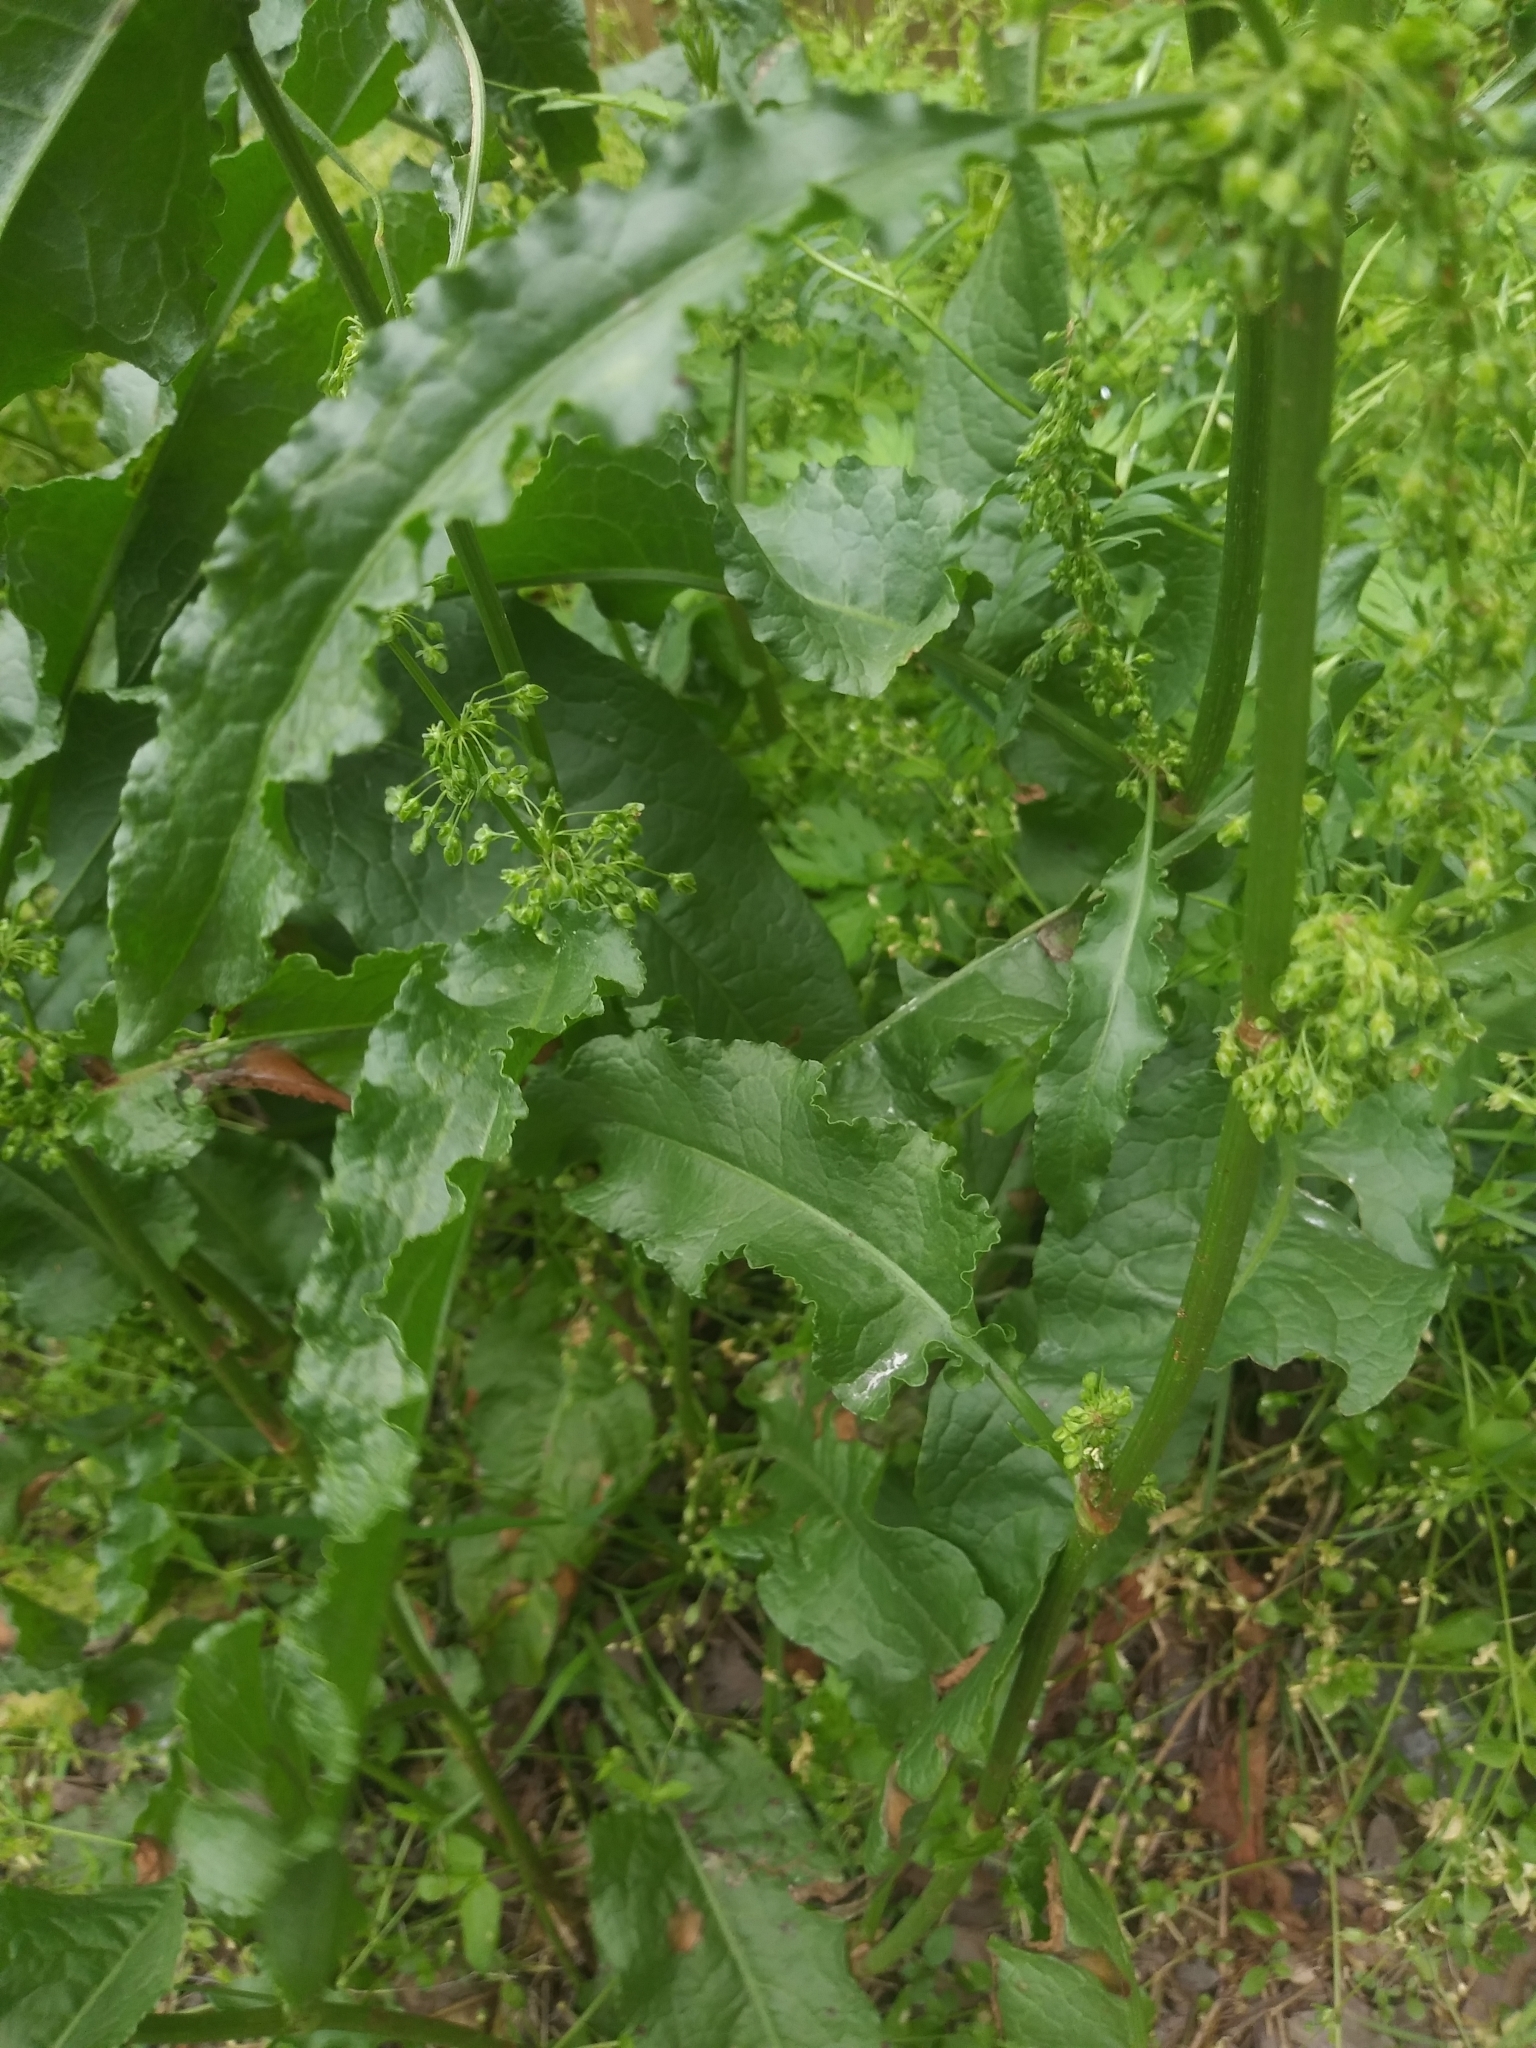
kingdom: Plantae
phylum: Tracheophyta
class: Magnoliopsida
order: Caryophyllales
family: Polygonaceae
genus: Rumex
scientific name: Rumex crispus
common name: Curled dock
